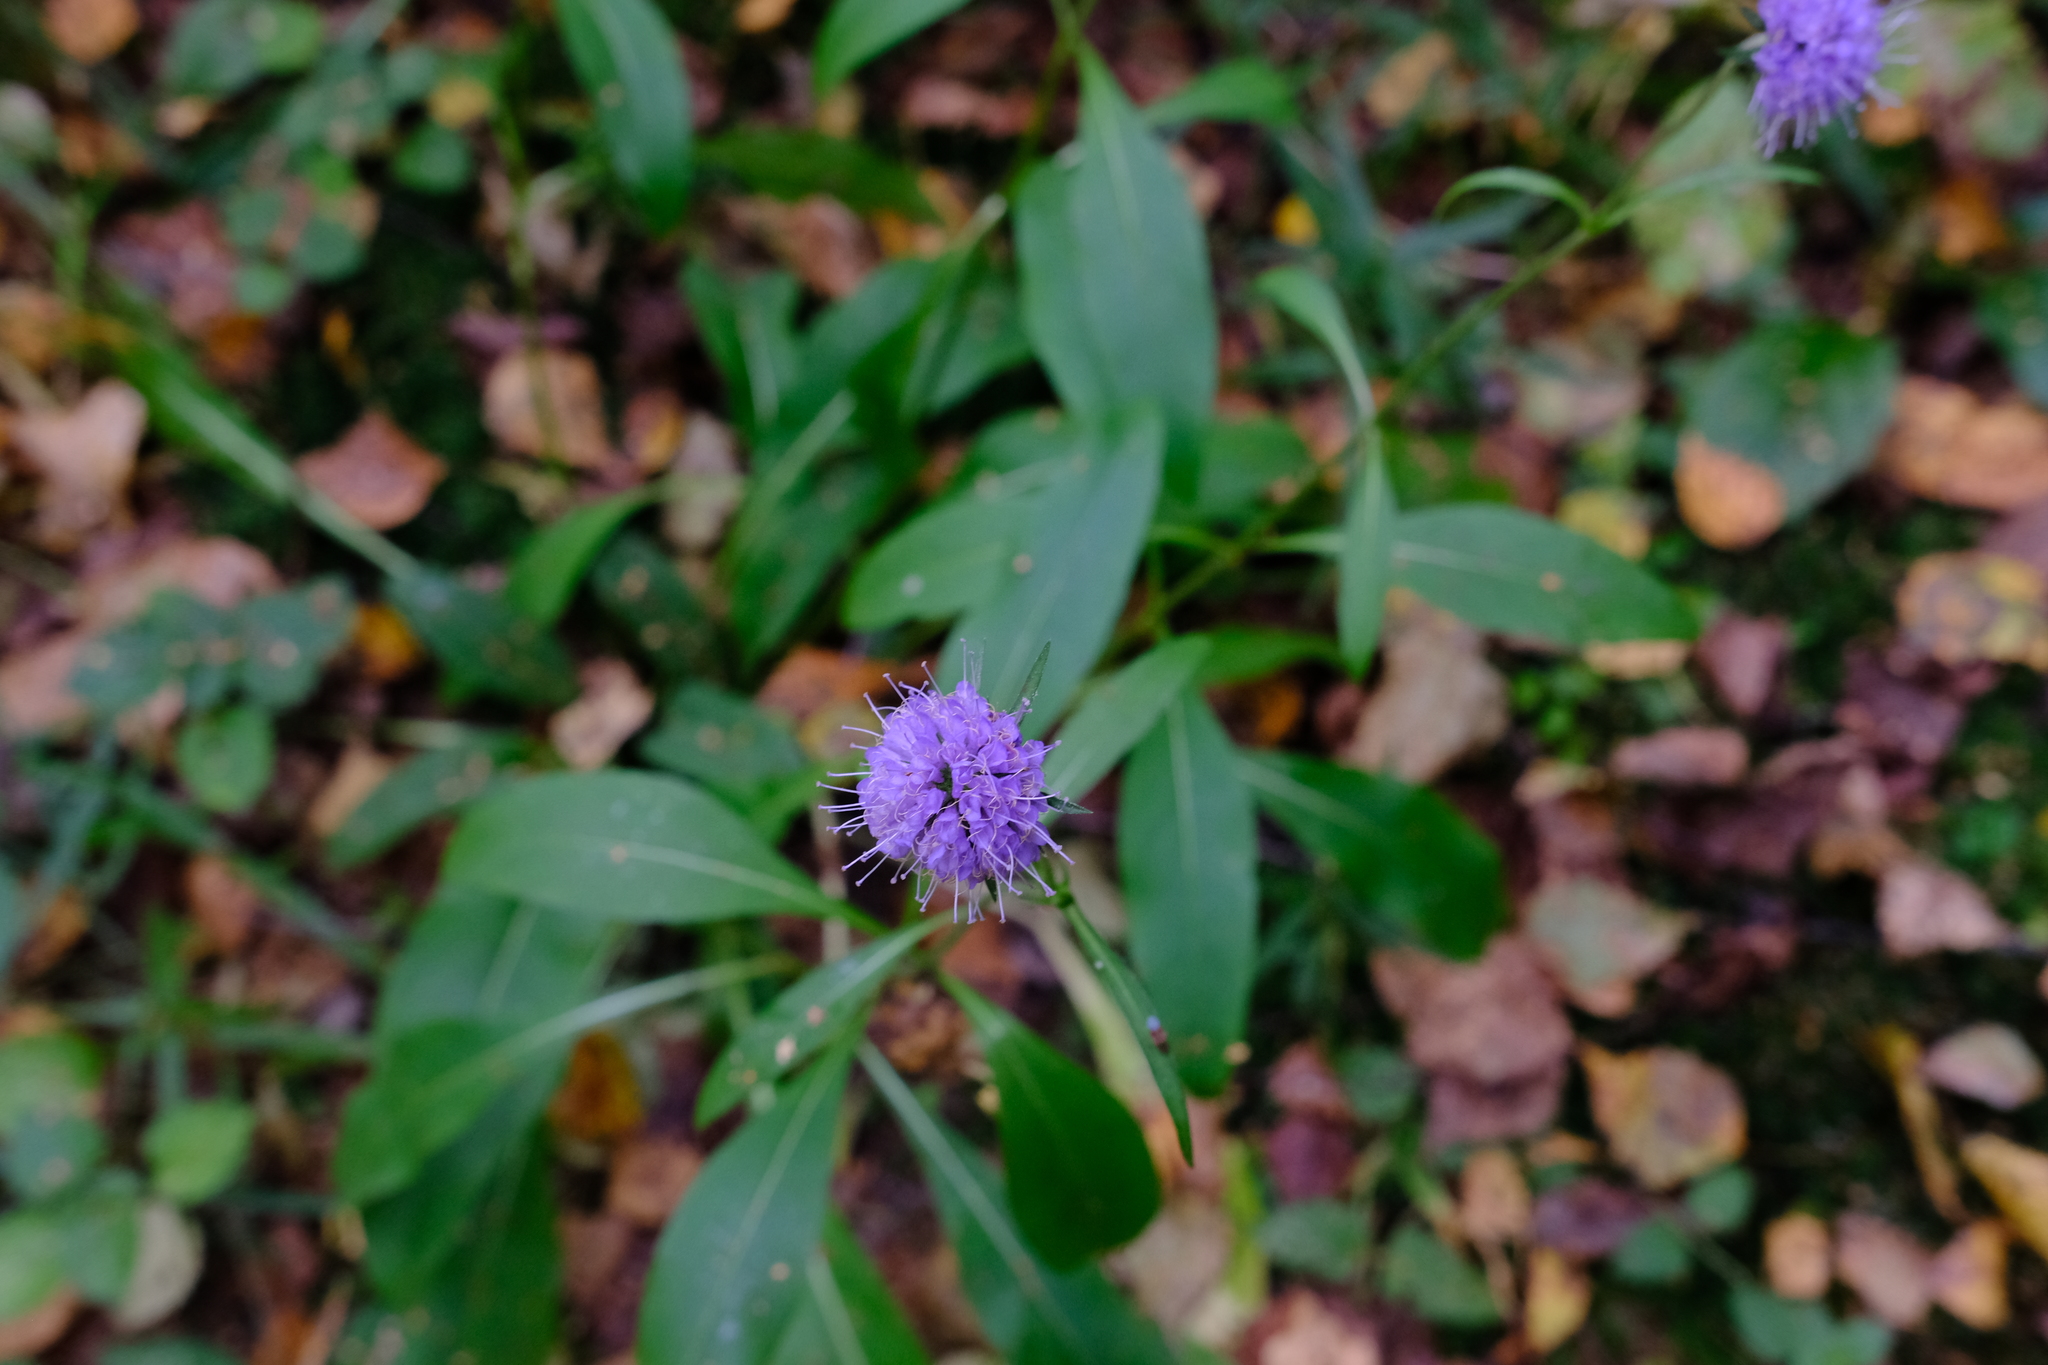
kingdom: Plantae
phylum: Tracheophyta
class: Magnoliopsida
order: Dipsacales
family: Caprifoliaceae
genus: Succisa
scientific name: Succisa pratensis
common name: Devil's-bit
